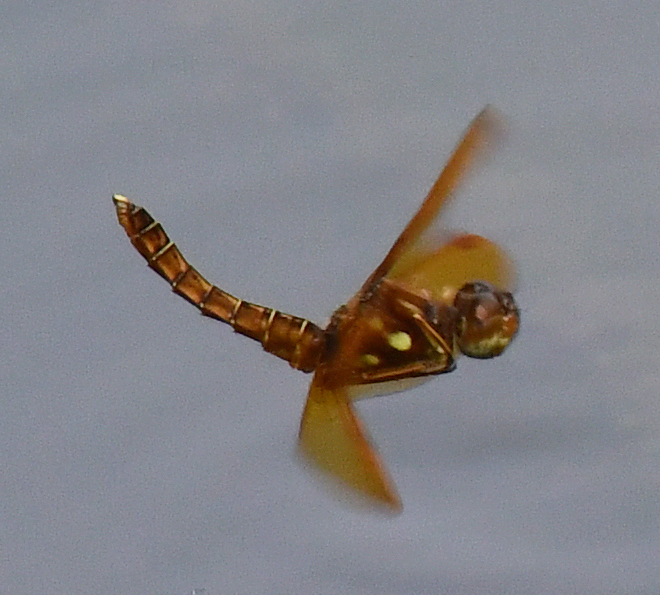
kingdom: Animalia
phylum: Arthropoda
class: Insecta
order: Odonata
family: Libellulidae
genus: Perithemis
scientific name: Perithemis tenera
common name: Eastern amberwing
